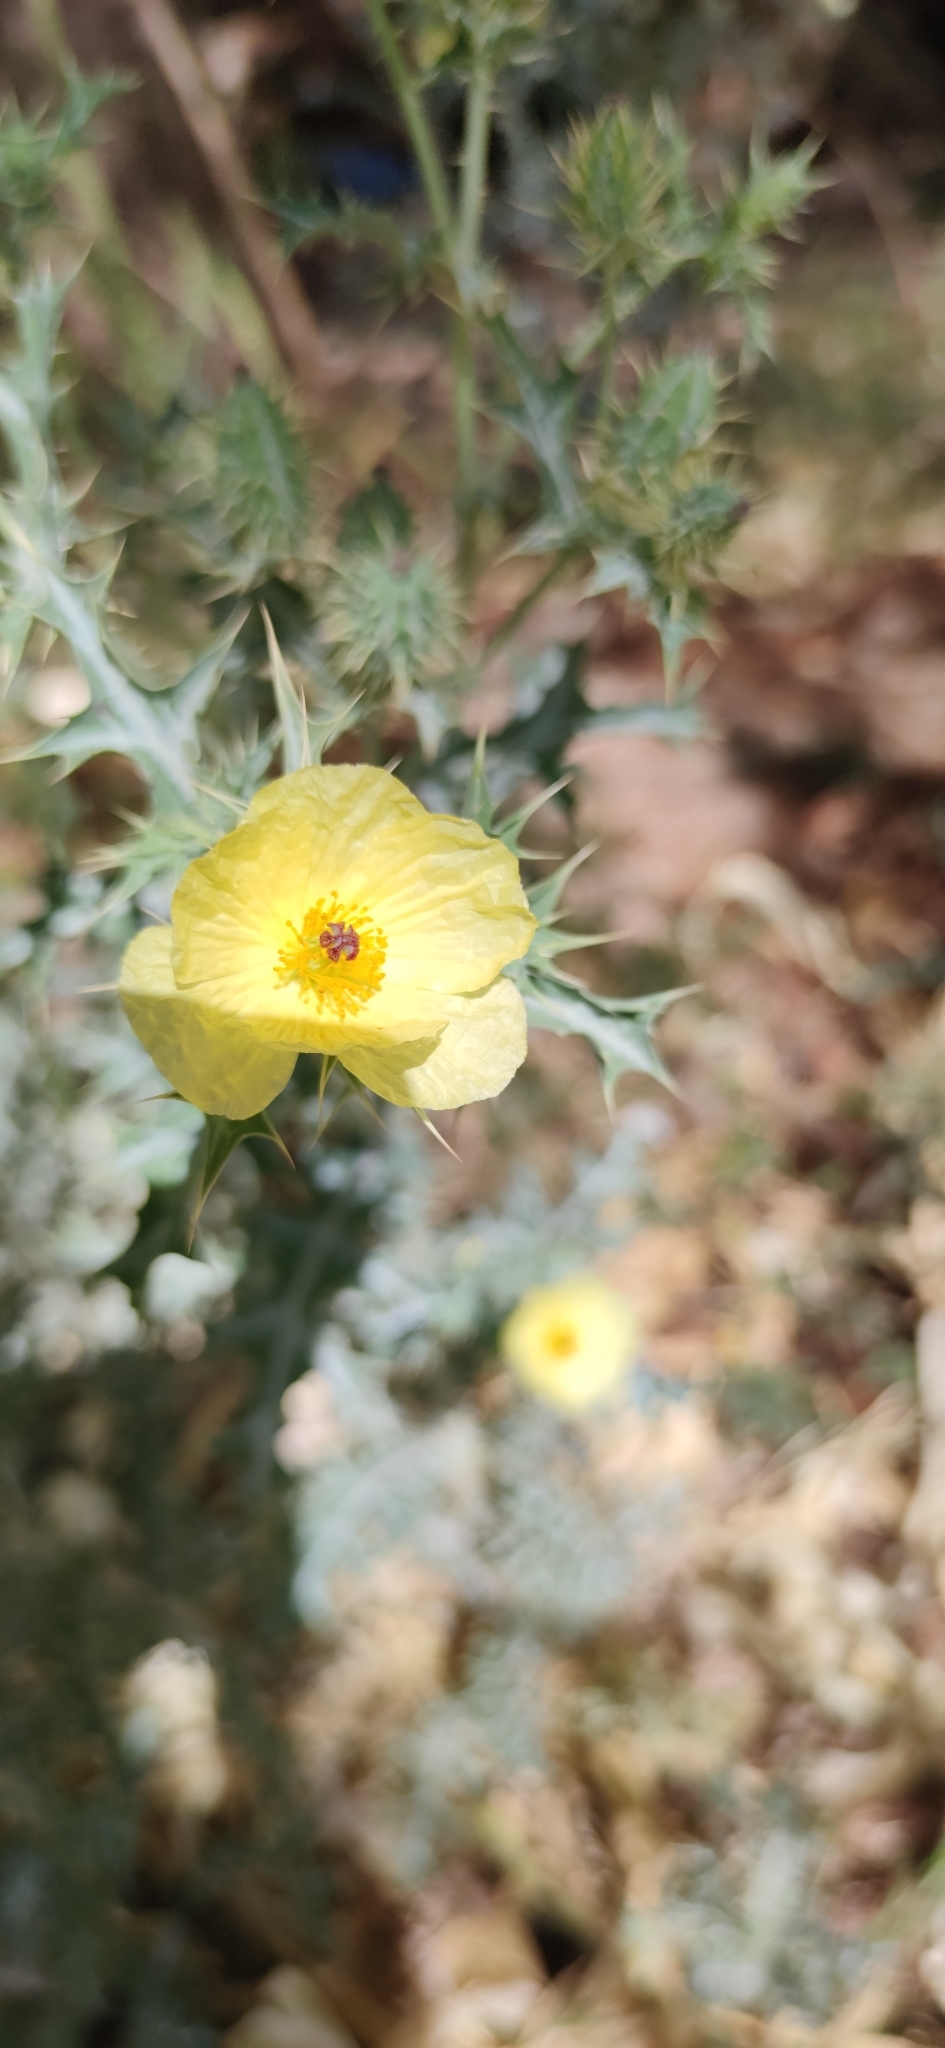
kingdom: Plantae
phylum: Tracheophyta
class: Magnoliopsida
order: Ranunculales
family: Papaveraceae
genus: Argemone
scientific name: Argemone ochroleuca
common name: White-flower mexican-poppy
